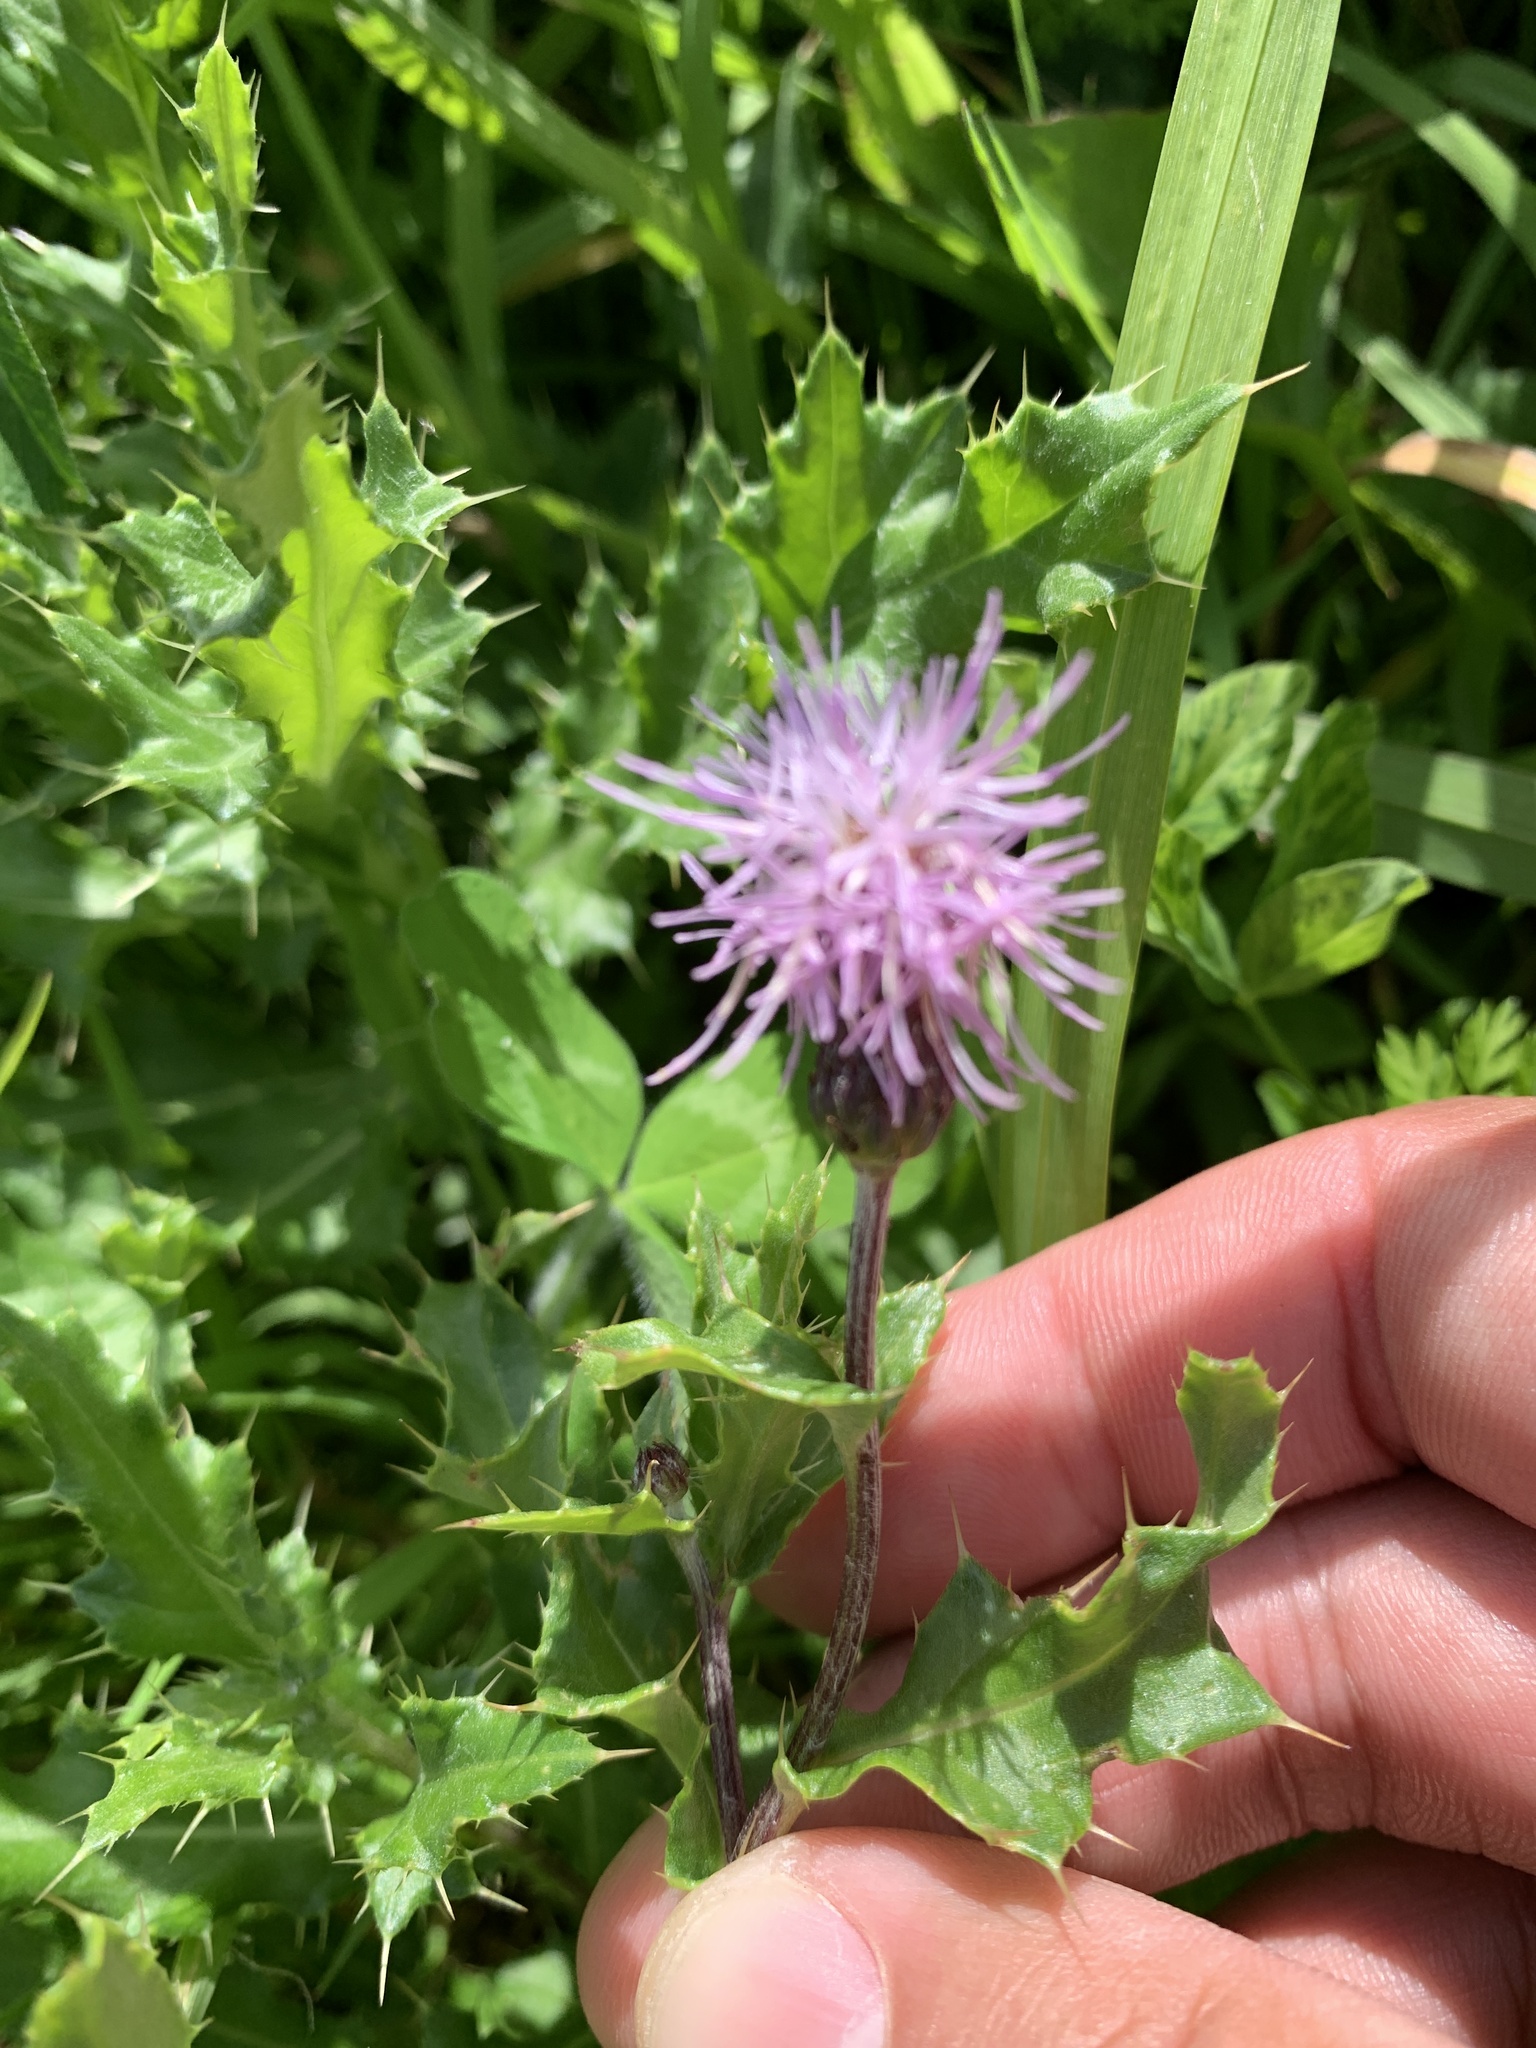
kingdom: Plantae
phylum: Tracheophyta
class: Magnoliopsida
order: Asterales
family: Asteraceae
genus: Cirsium
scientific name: Cirsium arvense
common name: Creeping thistle
